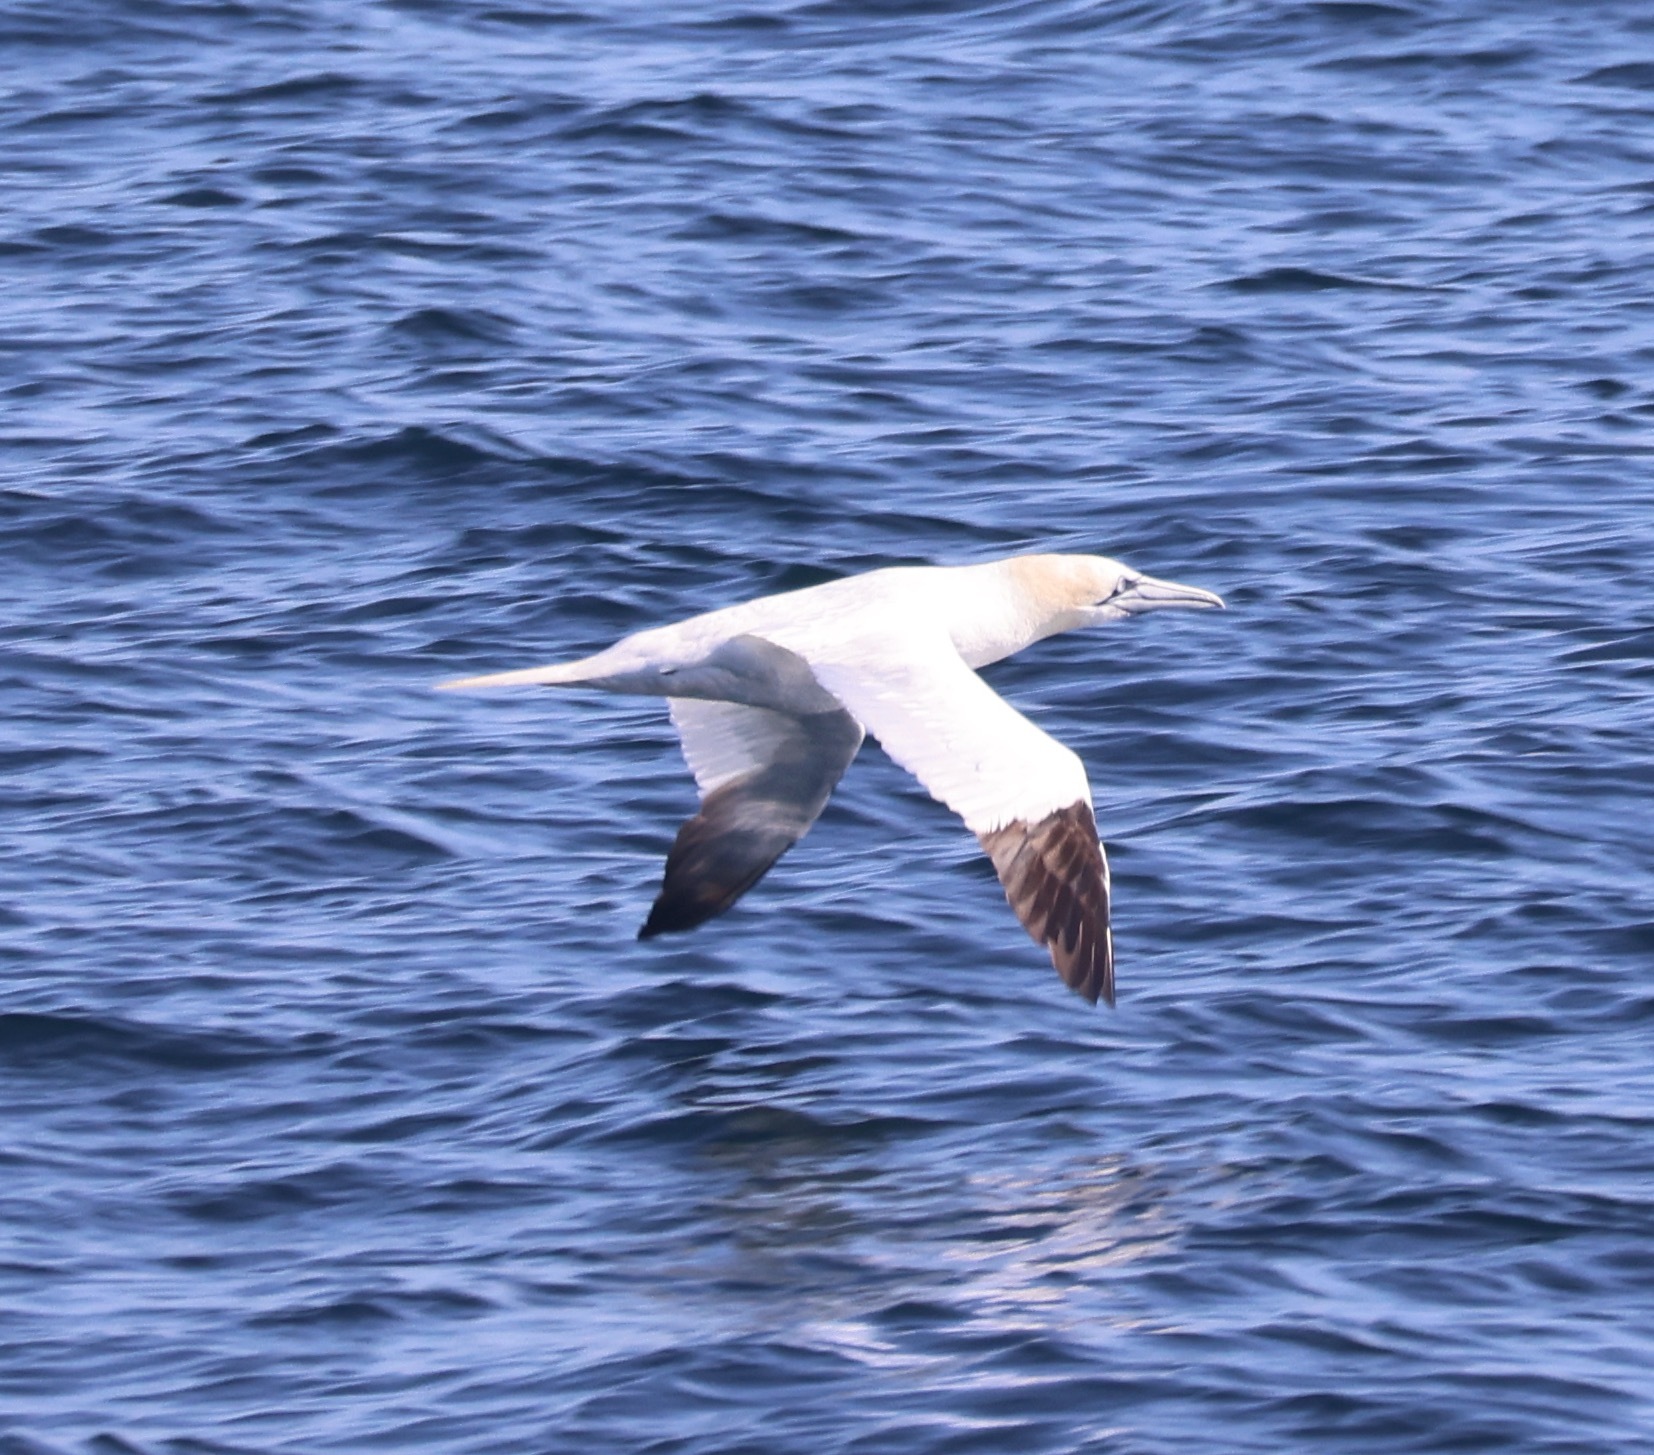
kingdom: Animalia
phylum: Chordata
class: Aves
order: Suliformes
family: Sulidae
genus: Morus
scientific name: Morus bassanus
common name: Northern gannet
